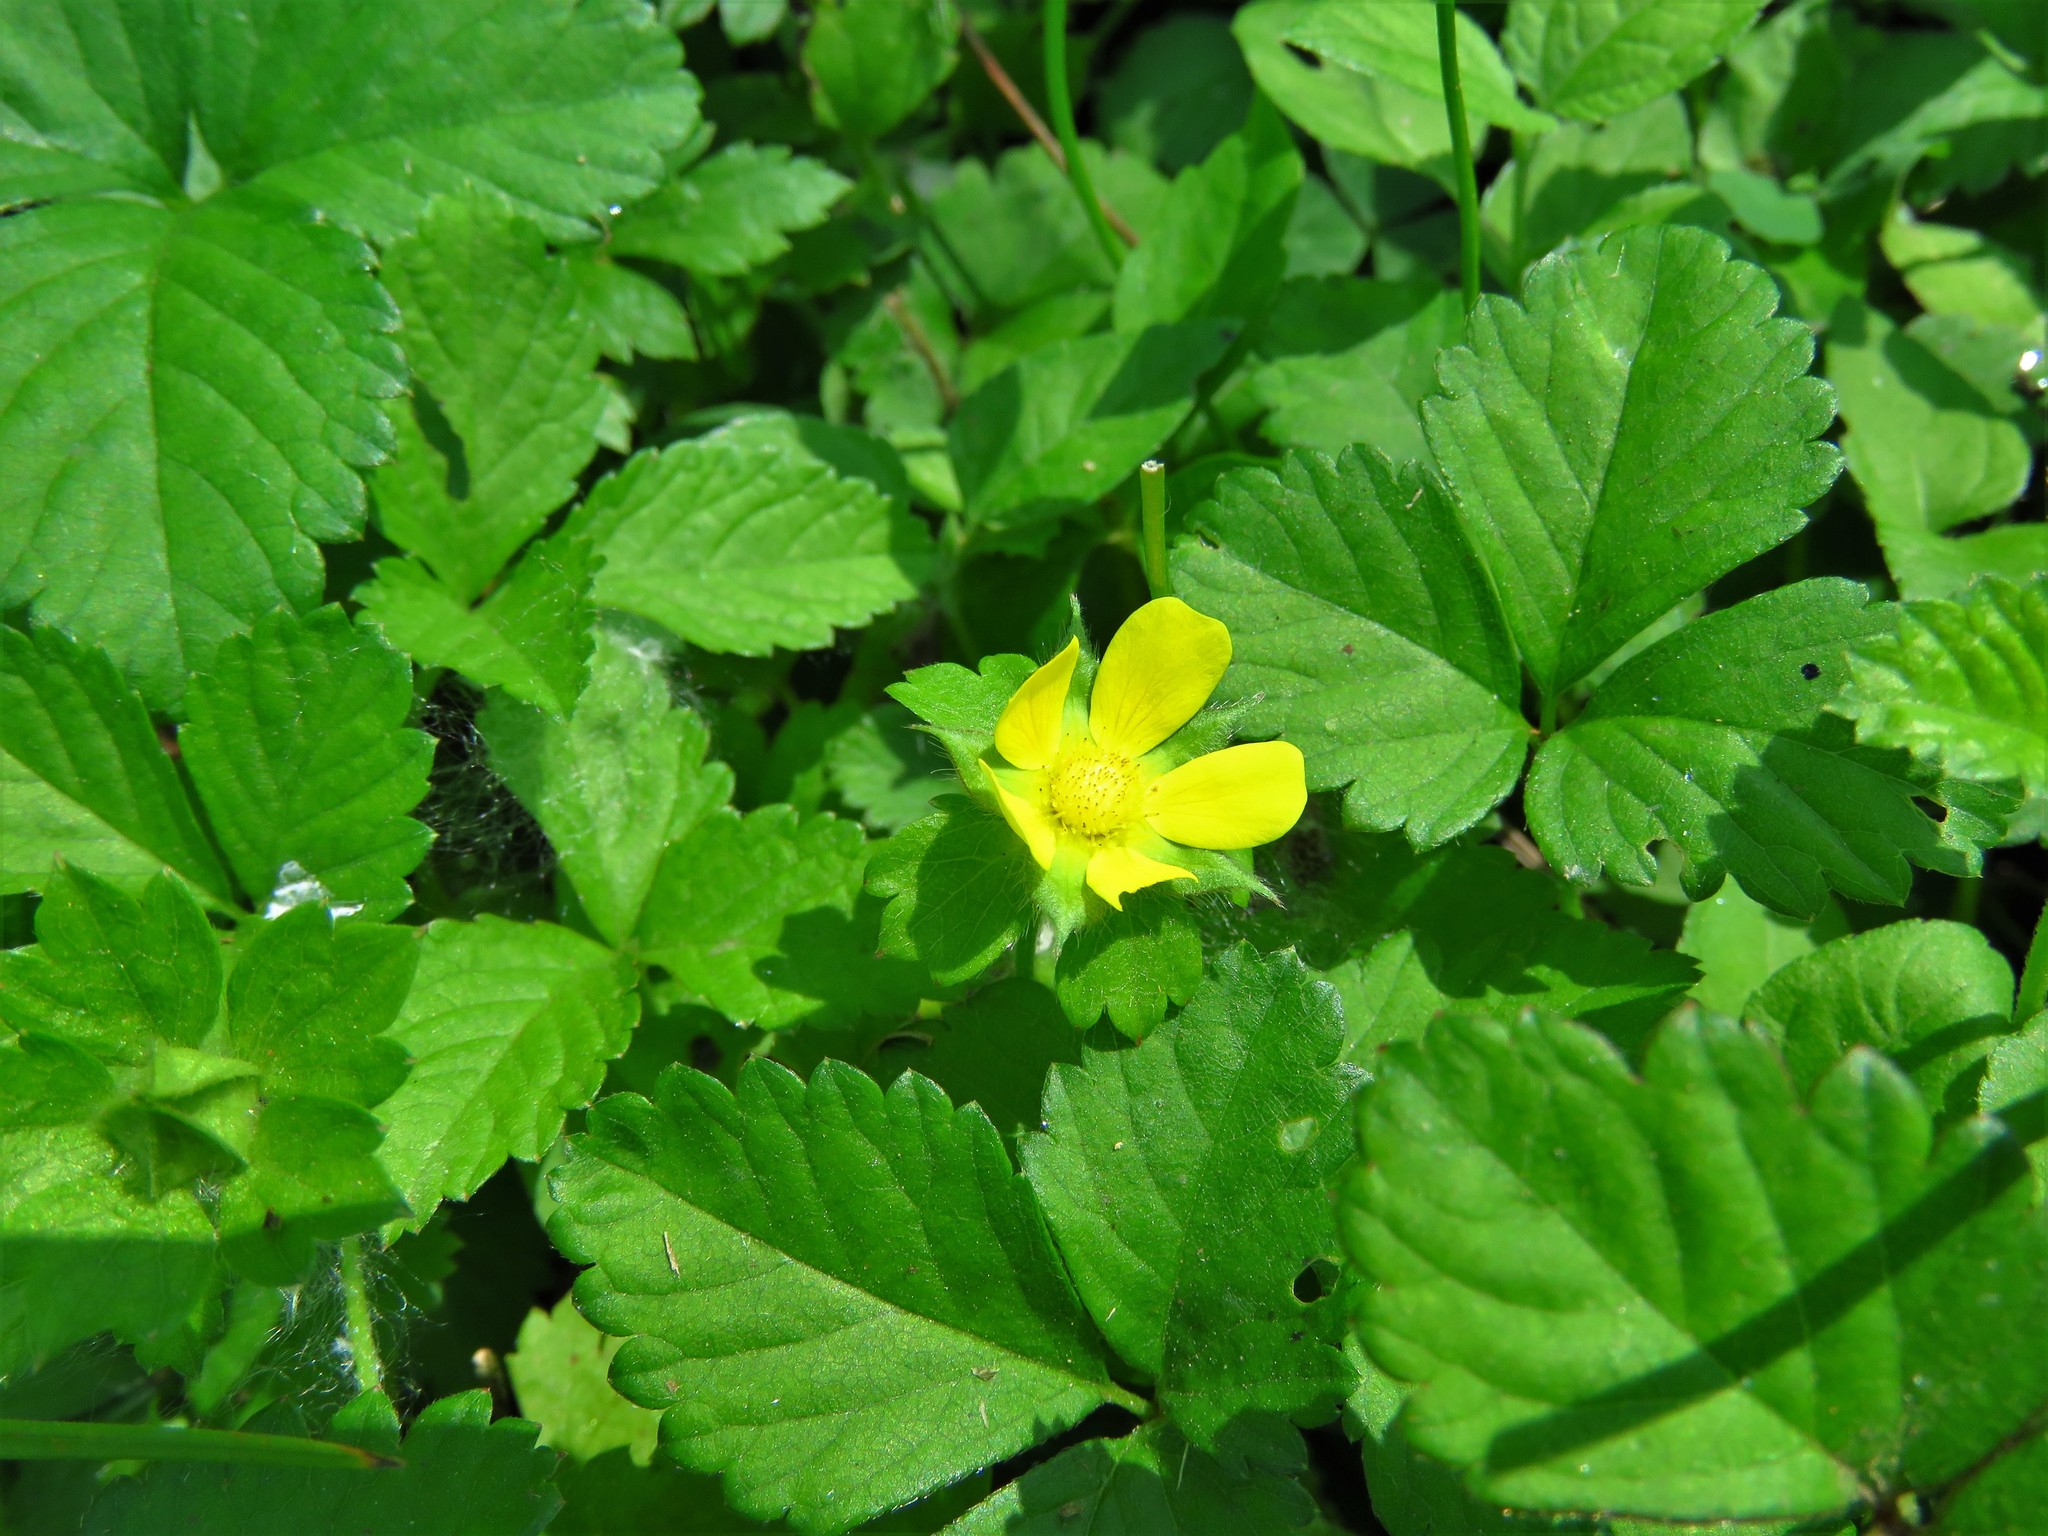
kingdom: Plantae
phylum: Tracheophyta
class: Magnoliopsida
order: Rosales
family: Rosaceae
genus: Potentilla
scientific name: Potentilla indica
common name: Yellow-flowered strawberry
